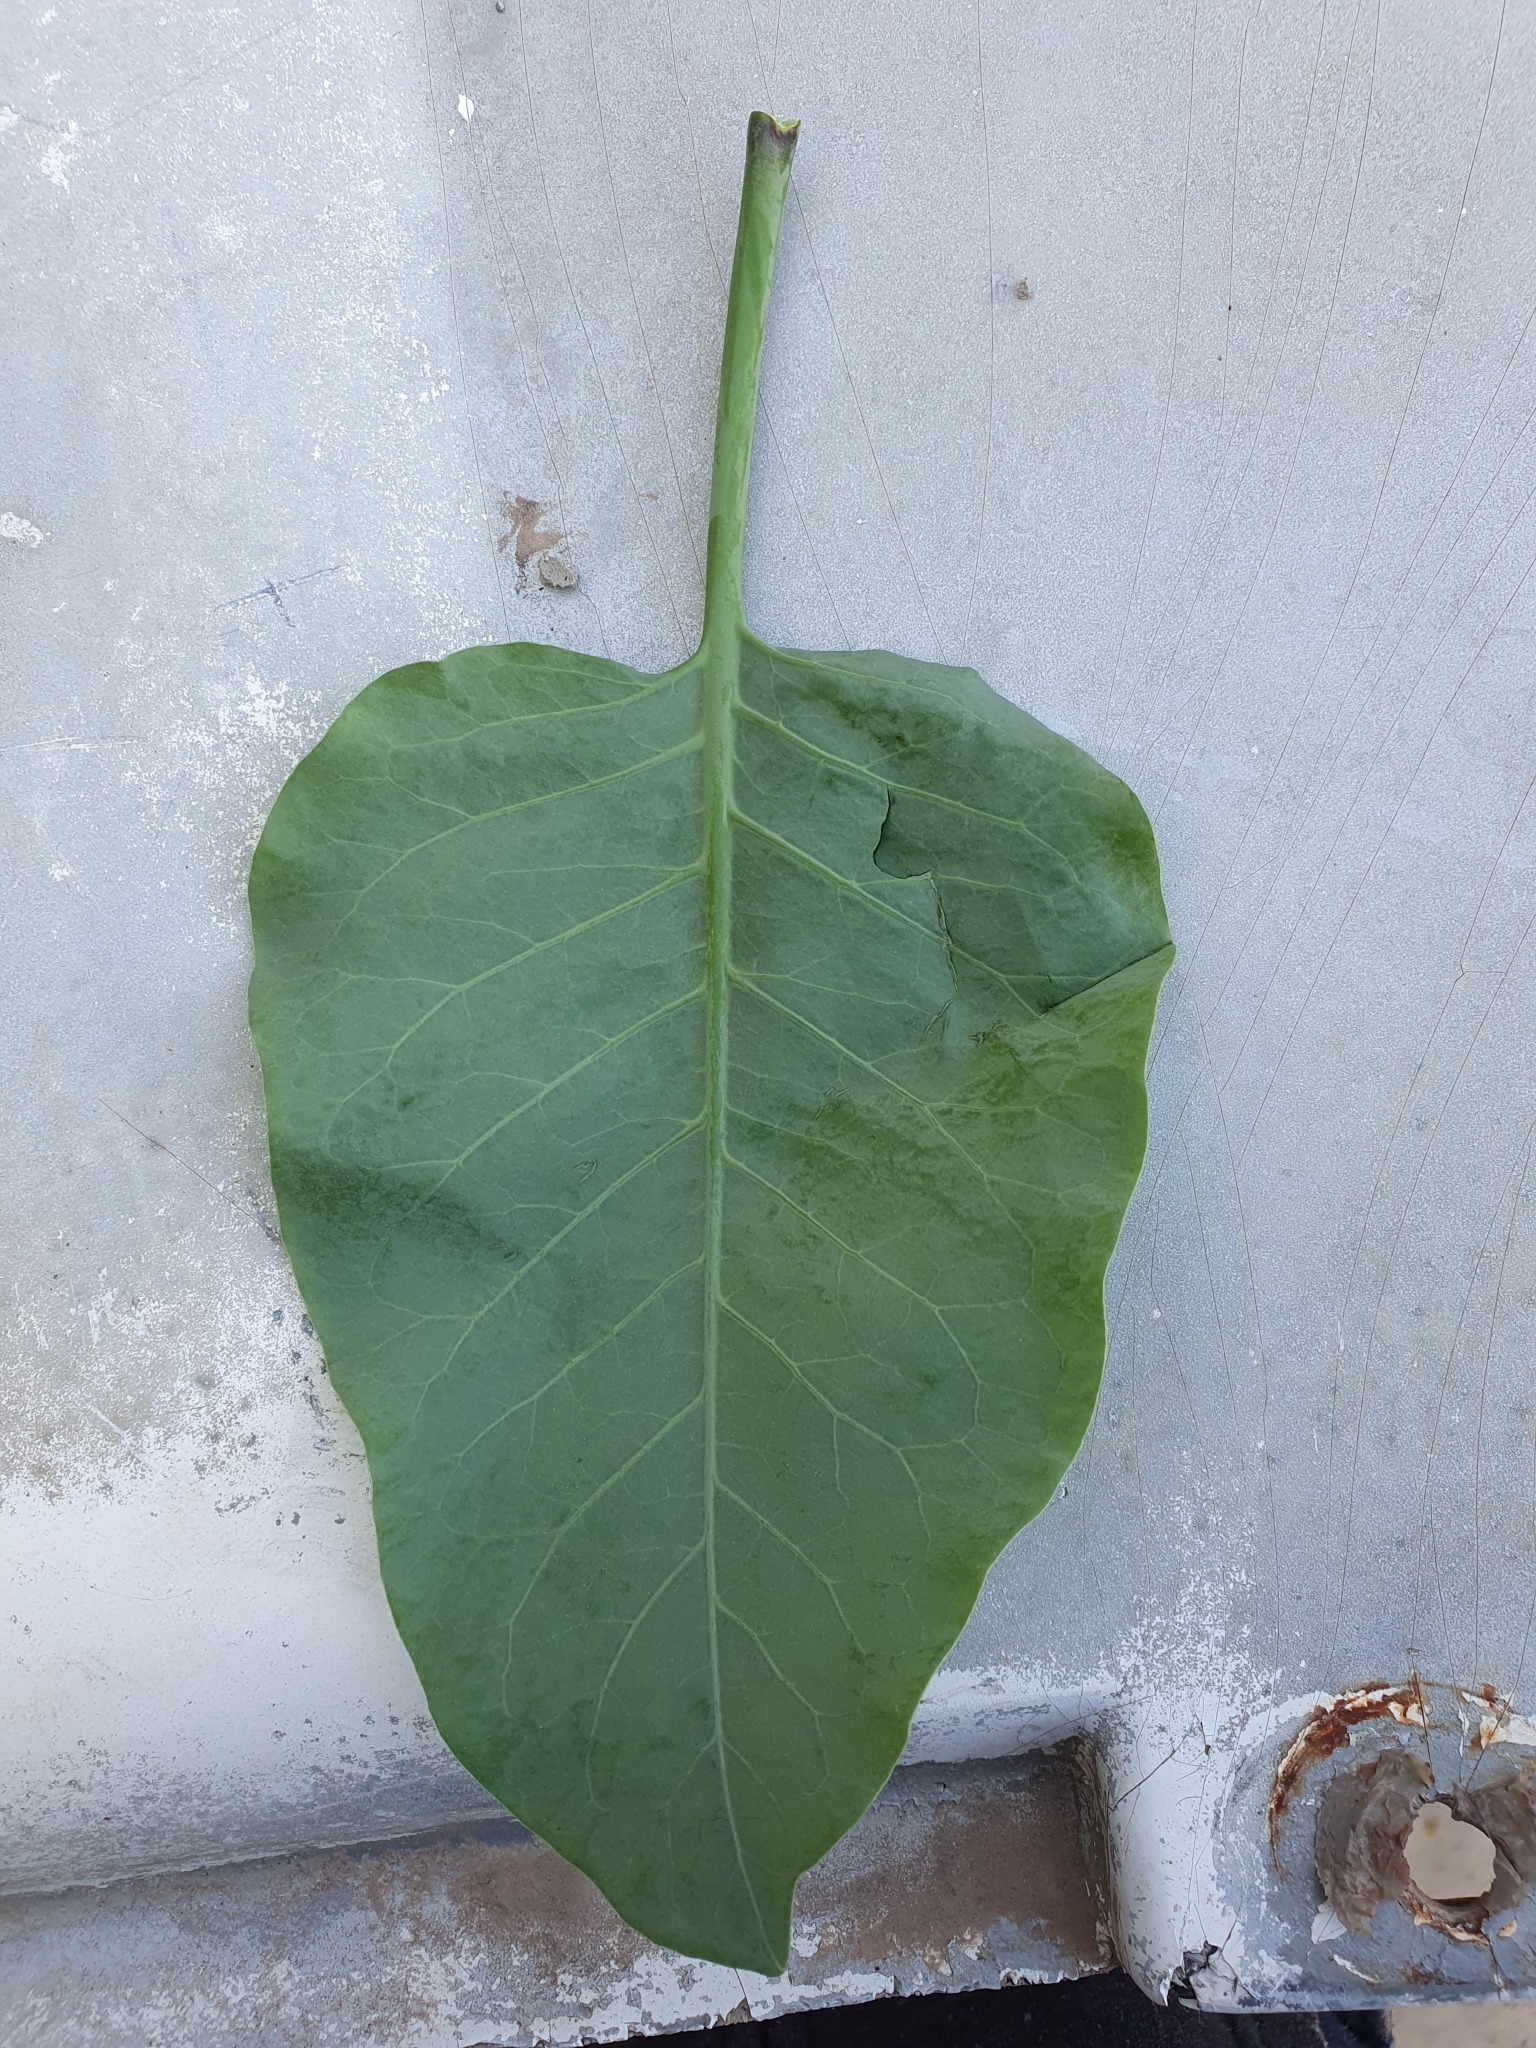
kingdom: Plantae
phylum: Tracheophyta
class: Magnoliopsida
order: Solanales
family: Solanaceae
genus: Nicotiana
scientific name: Nicotiana glauca
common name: Tree tobacco
